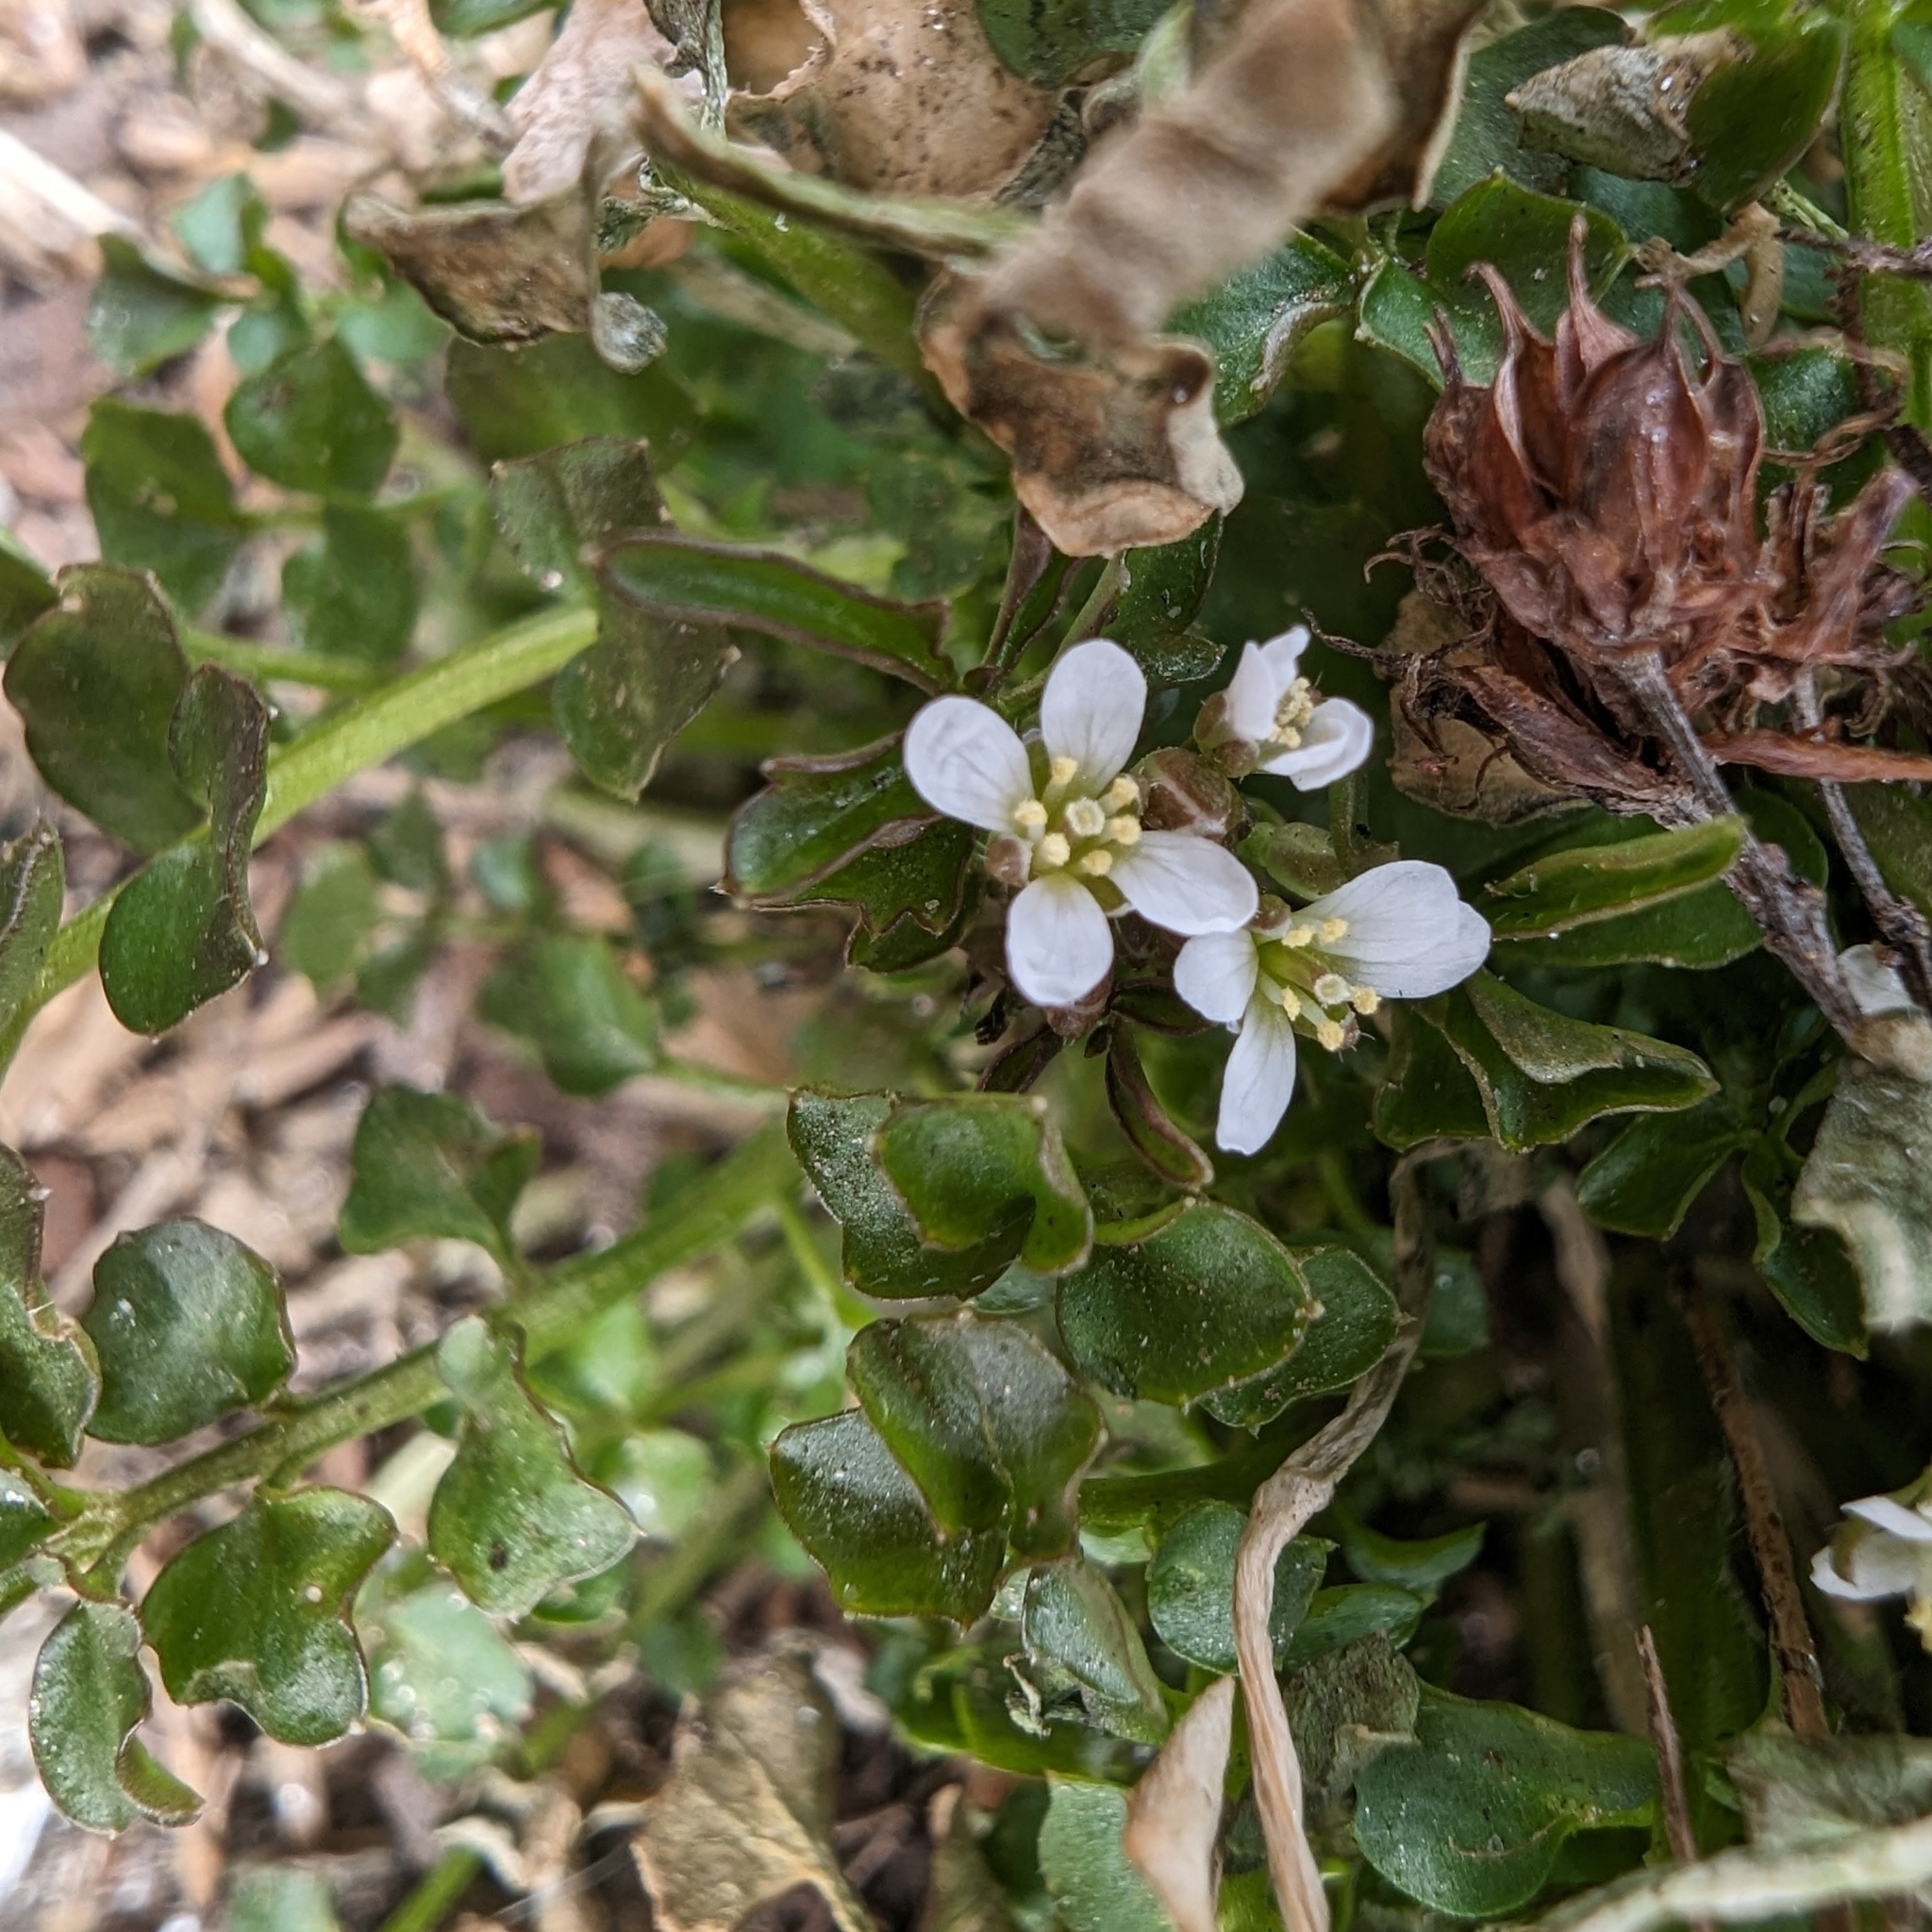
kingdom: Plantae
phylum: Tracheophyta
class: Magnoliopsida
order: Brassicales
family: Brassicaceae
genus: Cardamine
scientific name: Cardamine hirsuta
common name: Hairy bittercress
